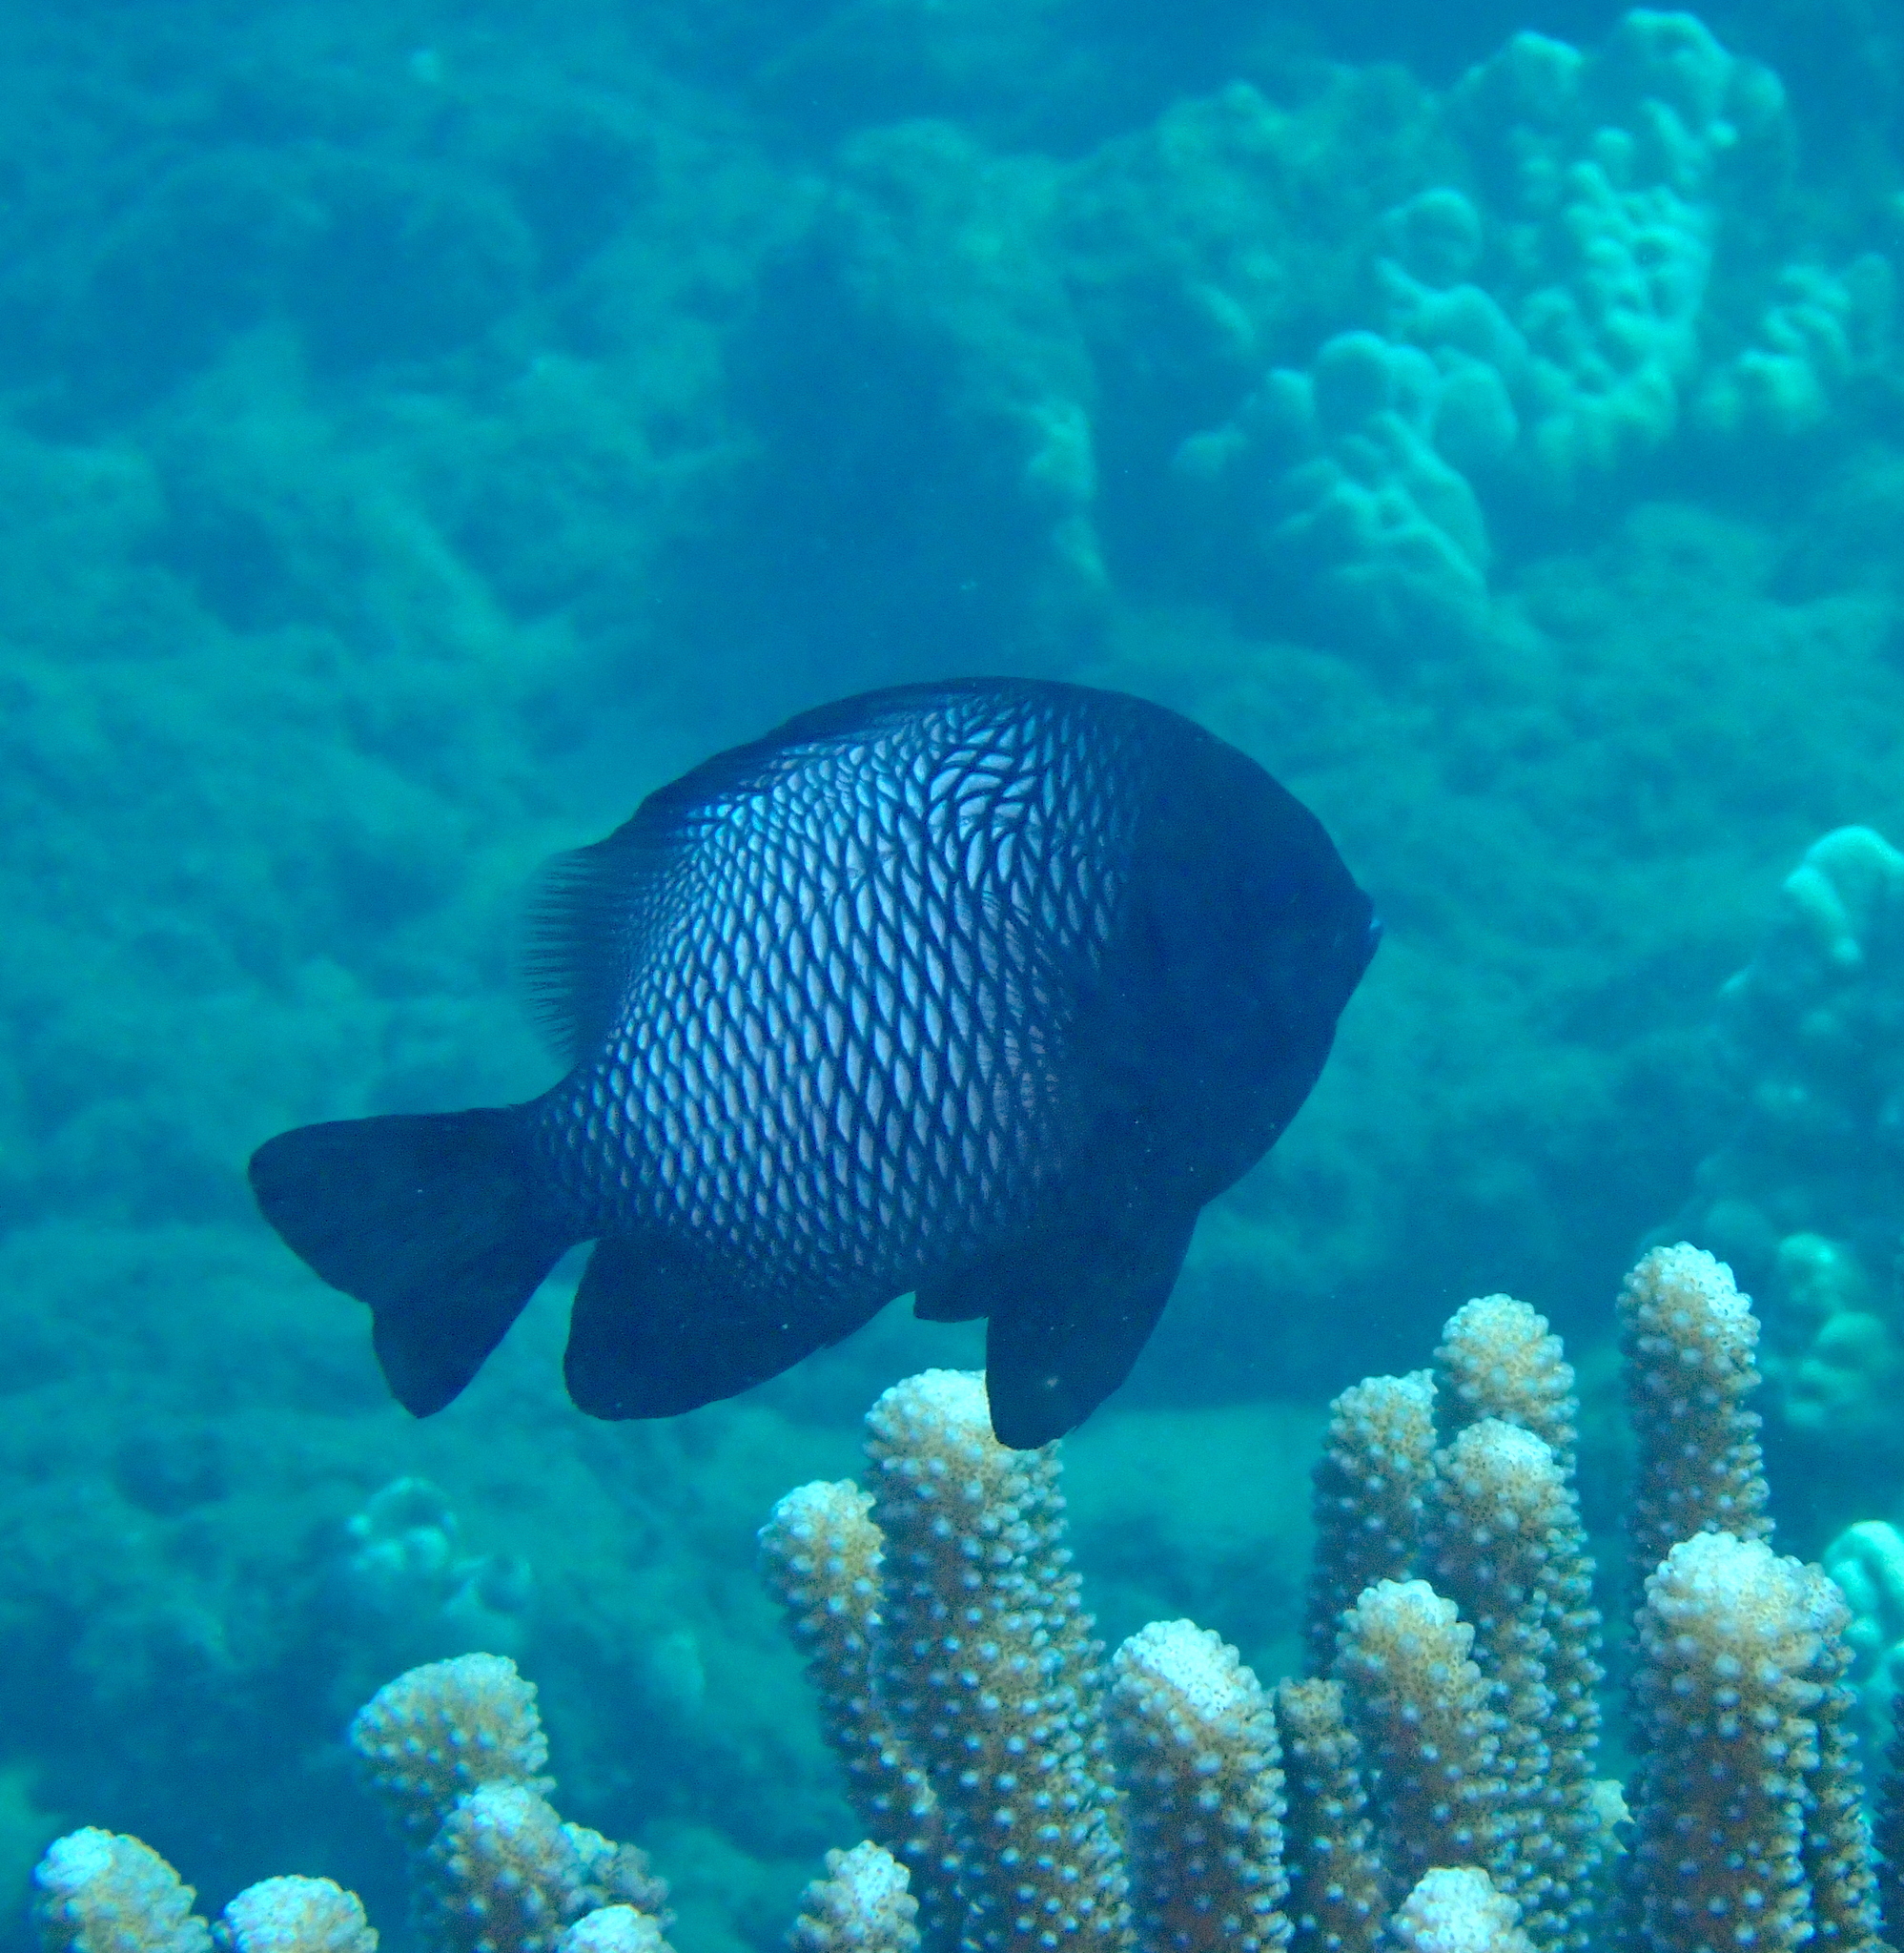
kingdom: Animalia
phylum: Chordata
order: Perciformes
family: Pomacentridae
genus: Dascyllus
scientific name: Dascyllus albisella
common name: Hawaiian dascyllus
